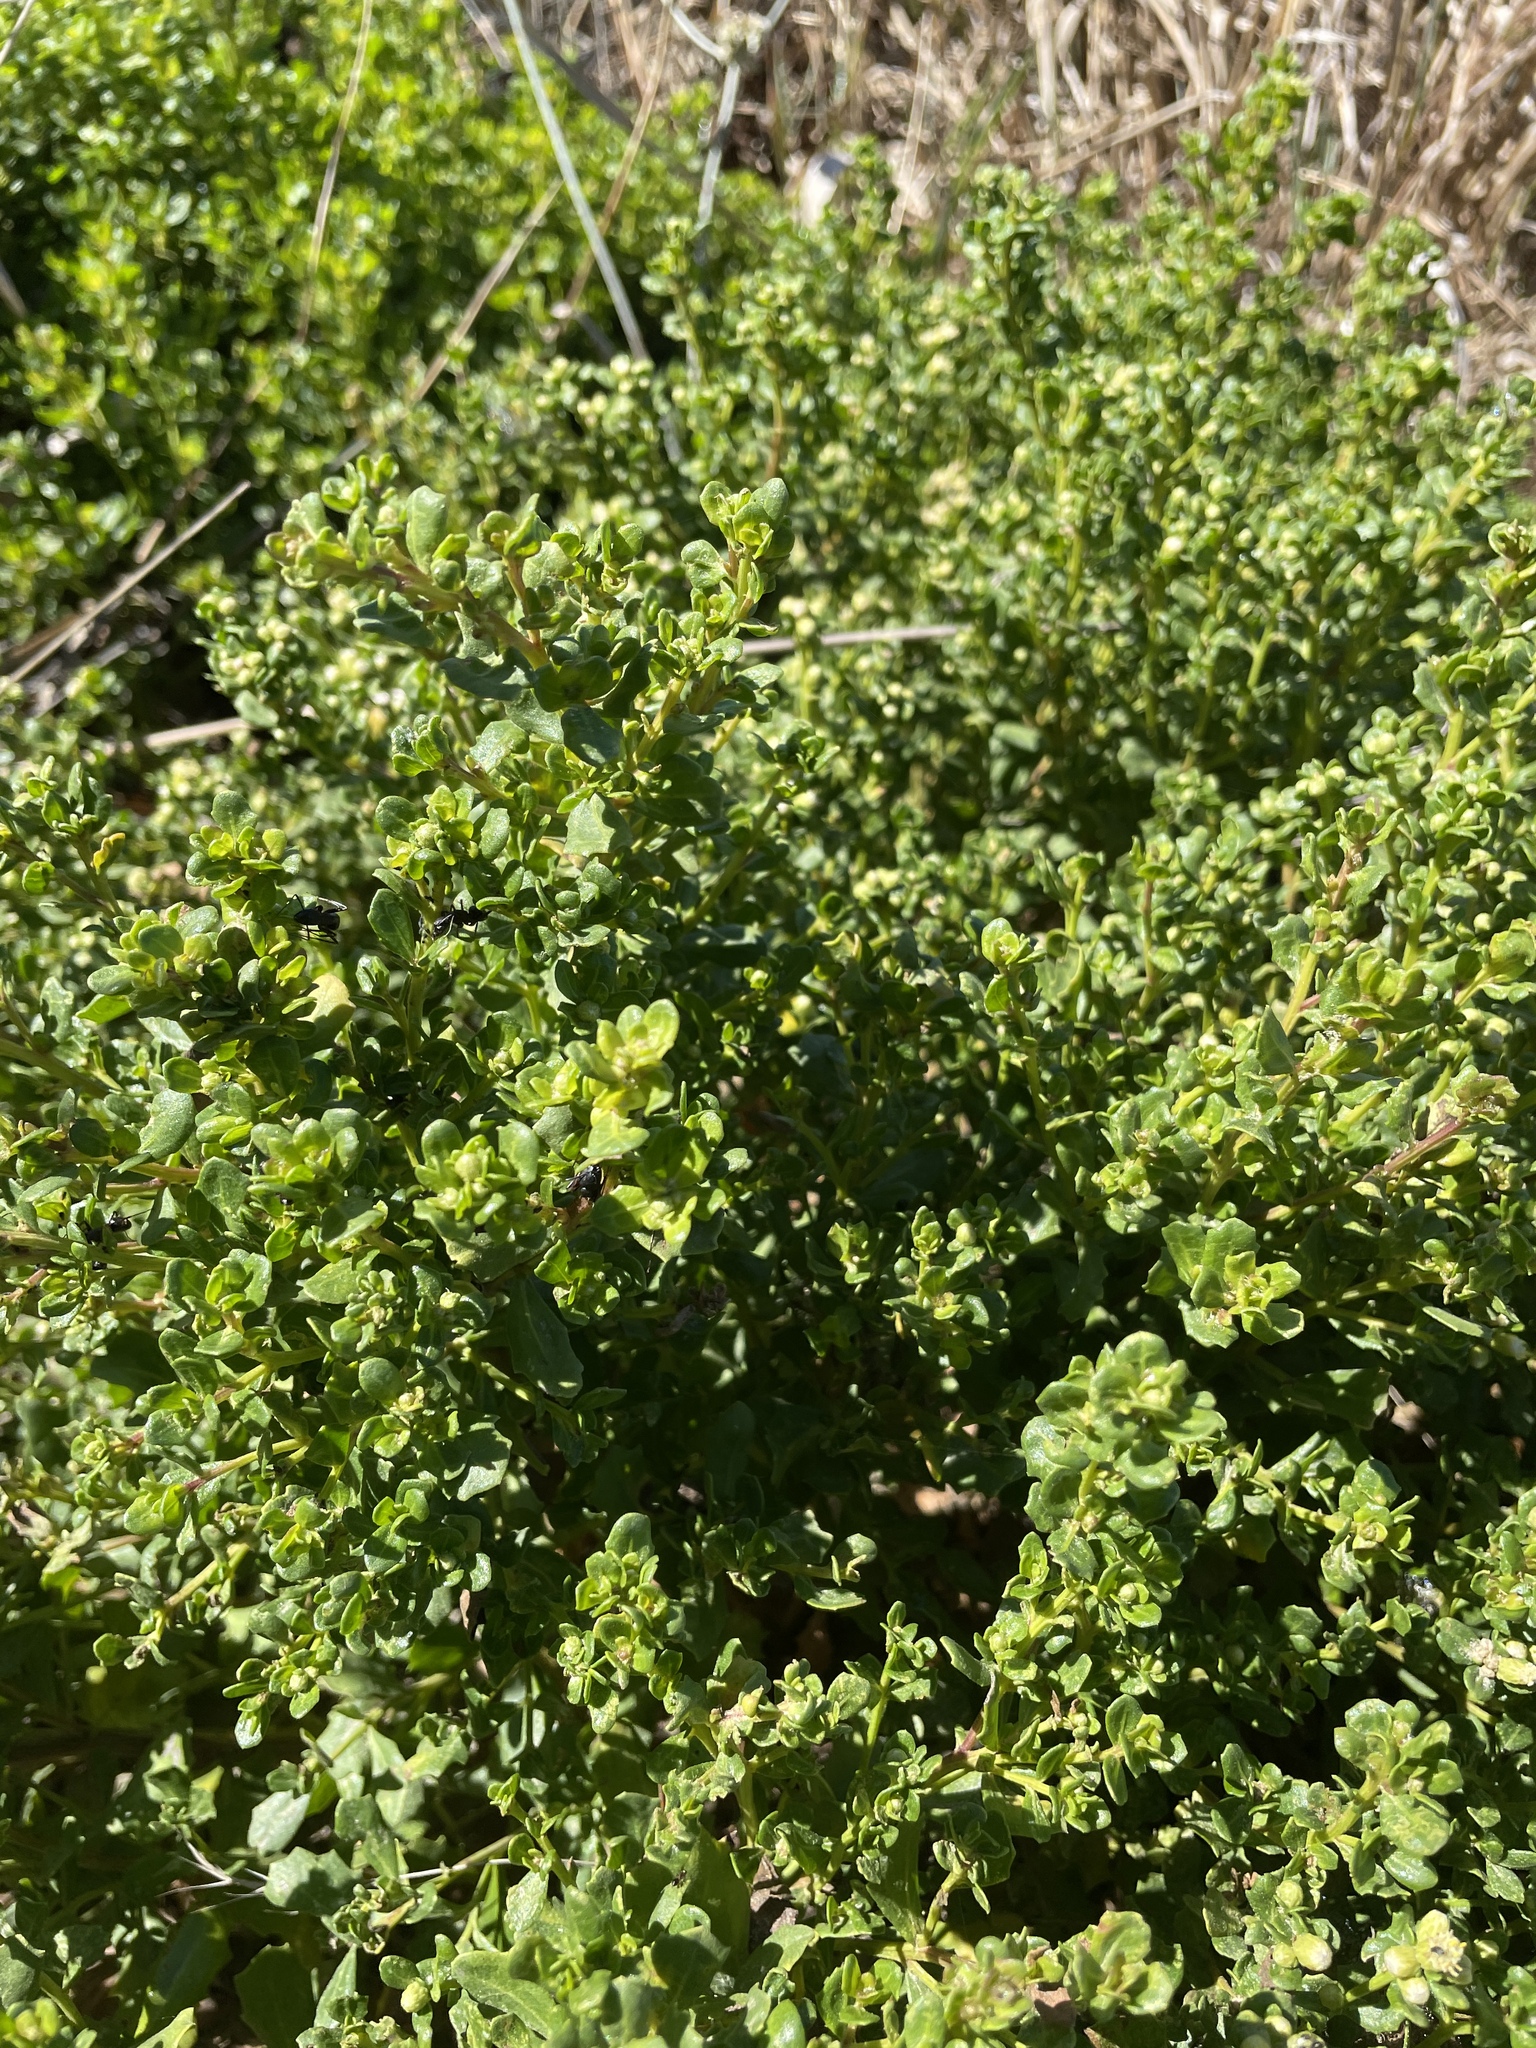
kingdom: Plantae
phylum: Tracheophyta
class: Magnoliopsida
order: Asterales
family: Asteraceae
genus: Baccharis
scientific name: Baccharis pilularis
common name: Coyotebrush
